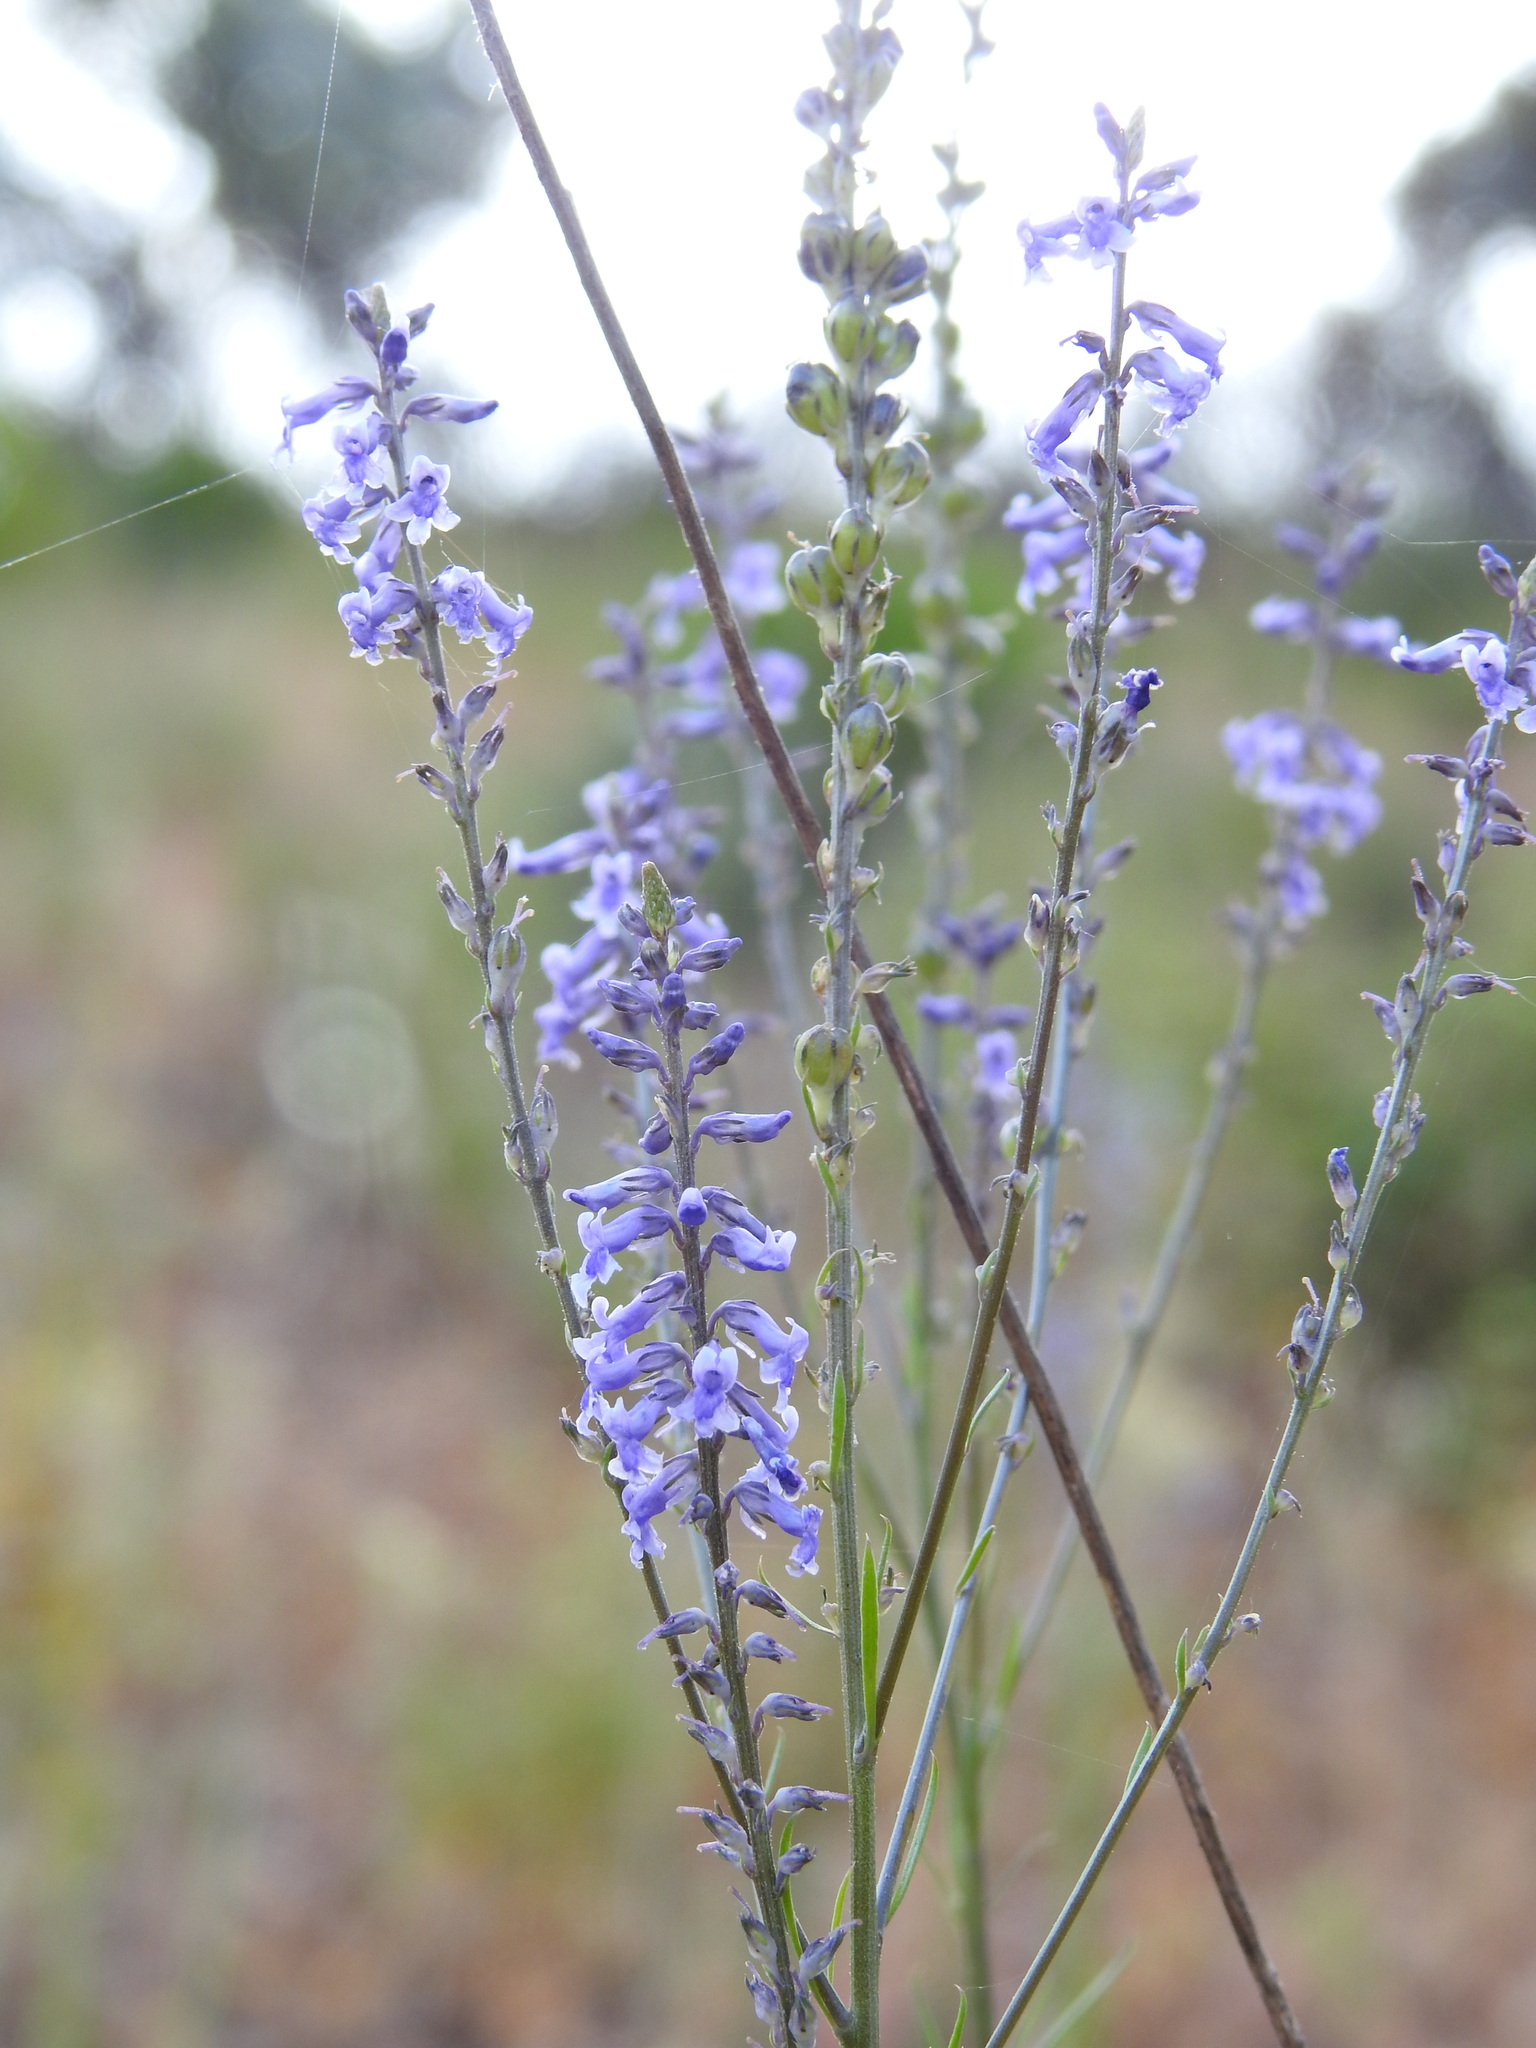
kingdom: Plantae
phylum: Tracheophyta
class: Magnoliopsida
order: Lamiales
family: Plantaginaceae
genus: Anarrhinum
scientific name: Anarrhinum bellidifolium
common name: Daisy-leaved toadflax
